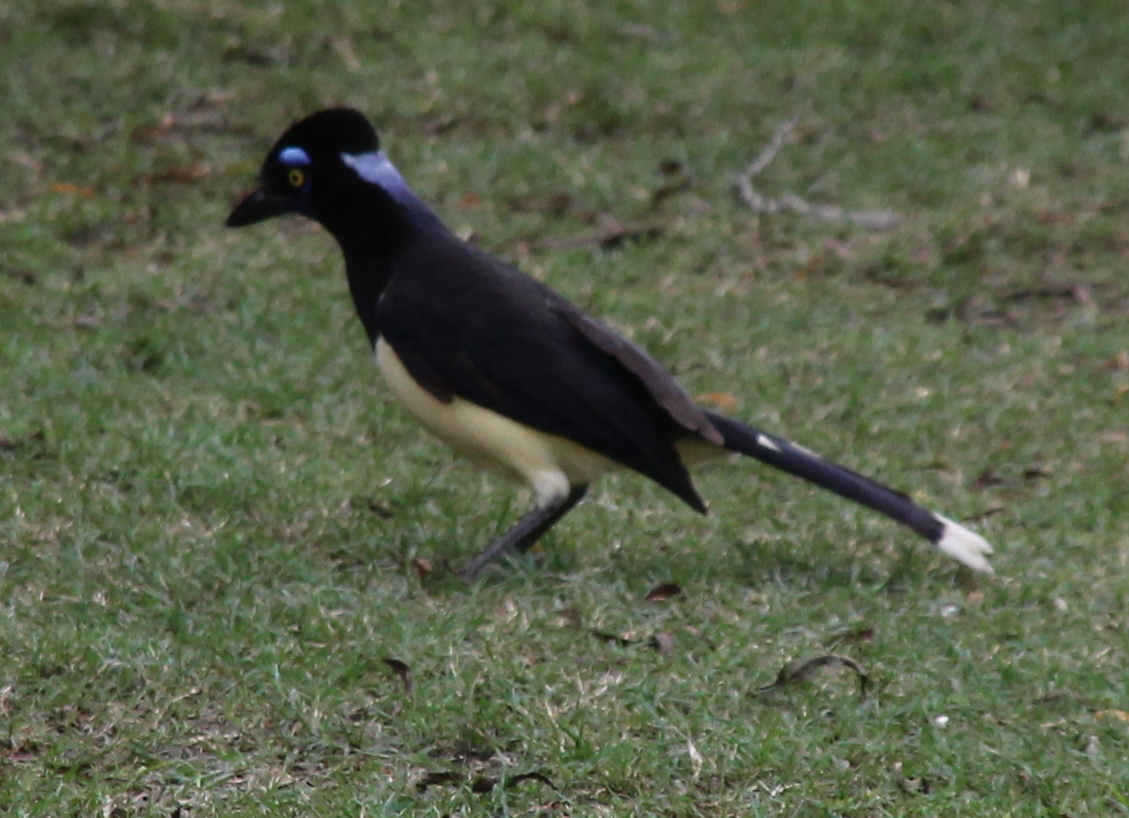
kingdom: Animalia
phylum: Chordata
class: Aves
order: Passeriformes
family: Corvidae
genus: Cyanocorax
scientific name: Cyanocorax chrysops
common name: Plush-crested jay
